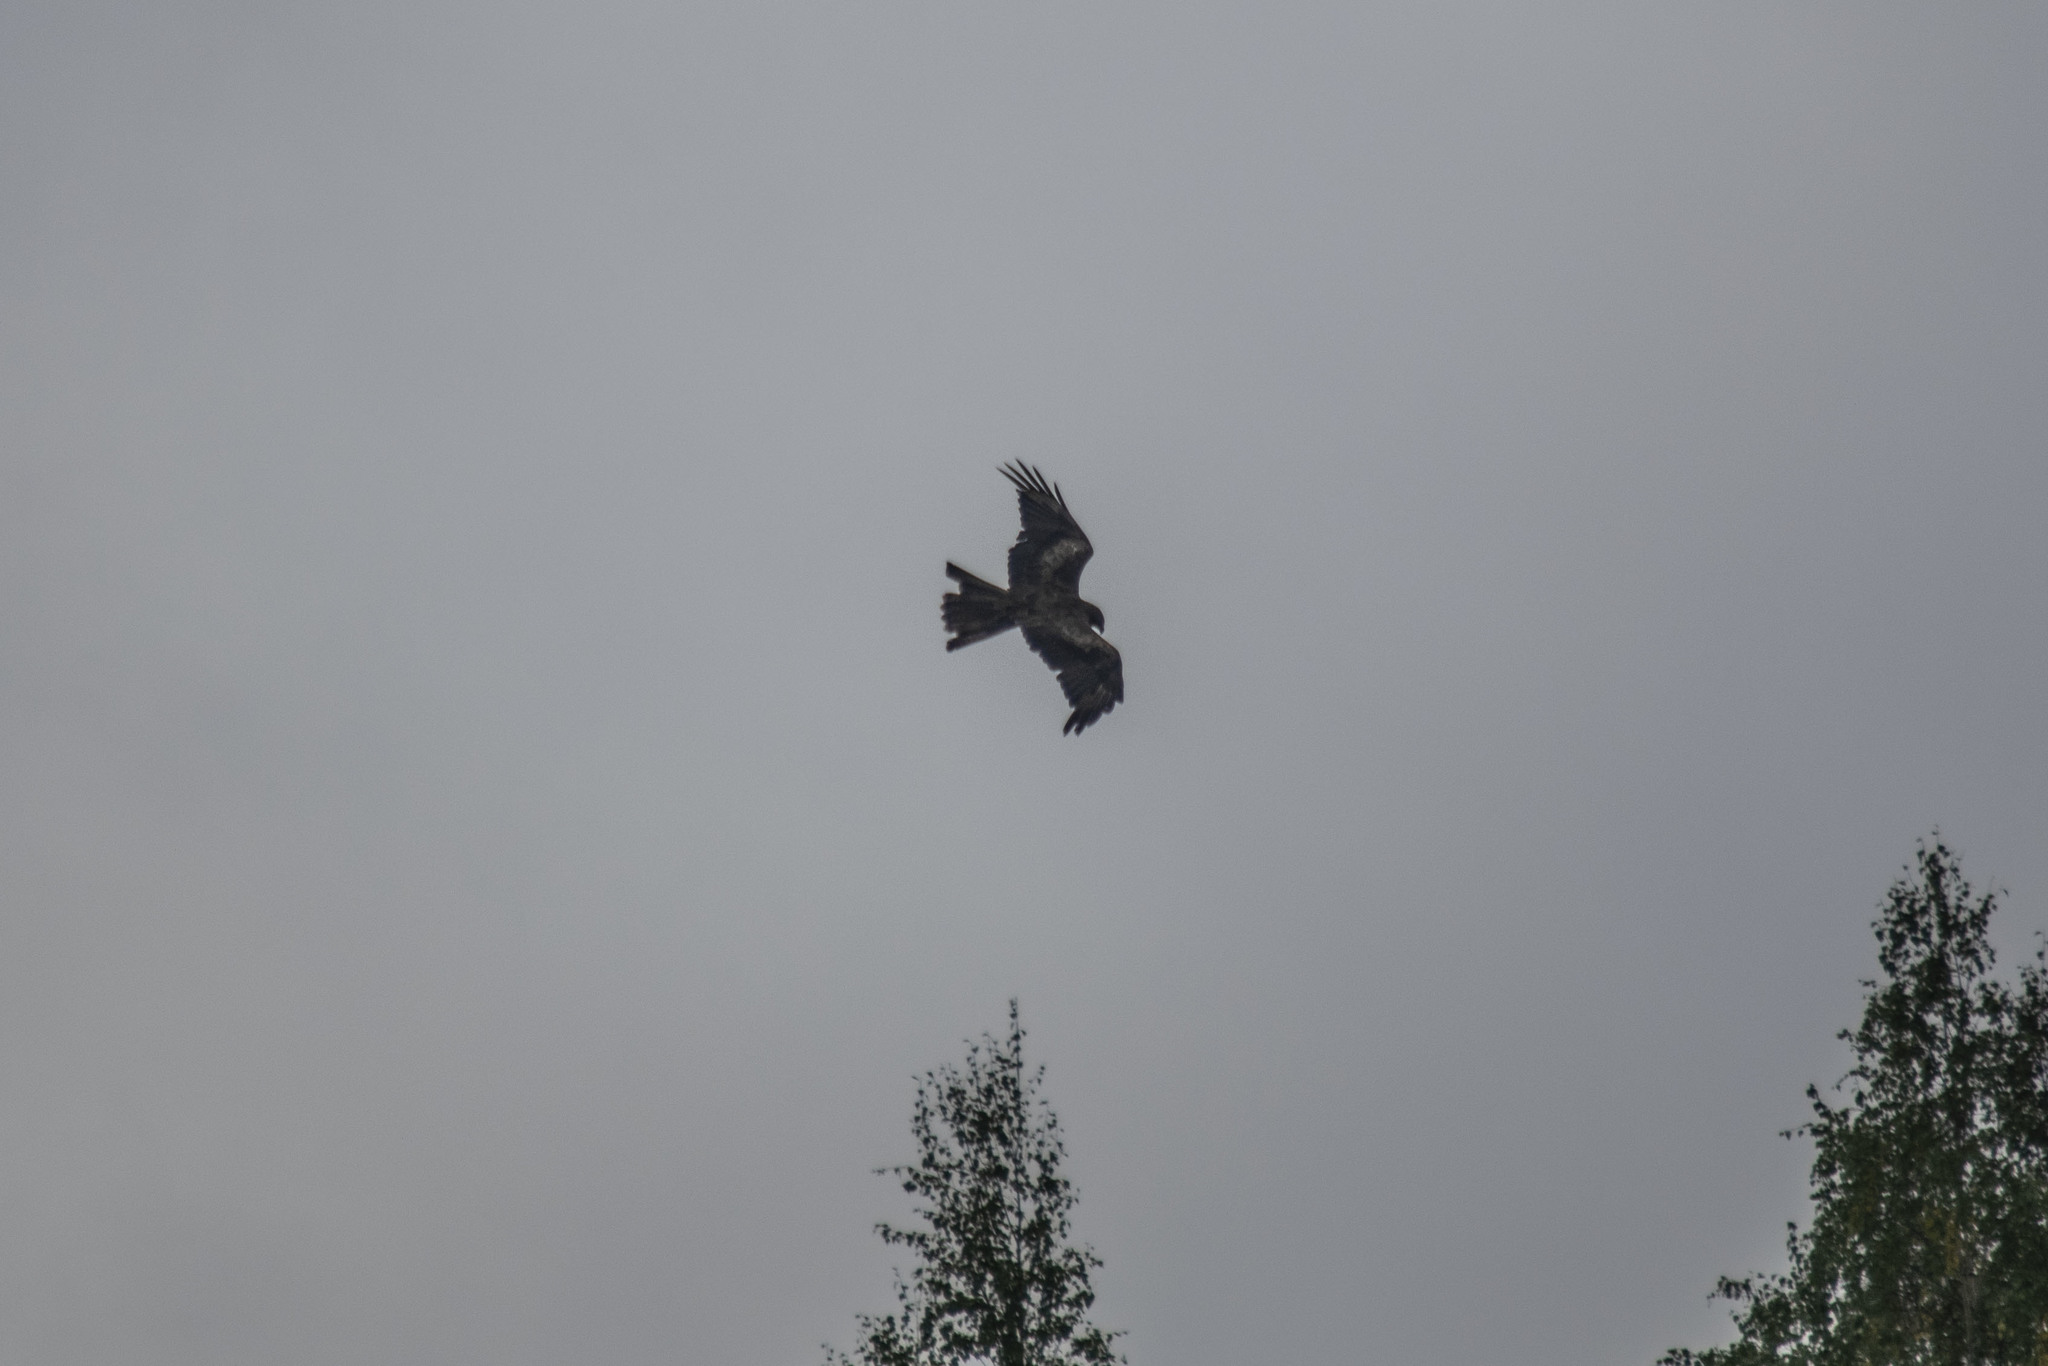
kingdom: Animalia
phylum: Chordata
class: Aves
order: Accipitriformes
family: Accipitridae
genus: Milvus
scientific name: Milvus migrans
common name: Black kite
